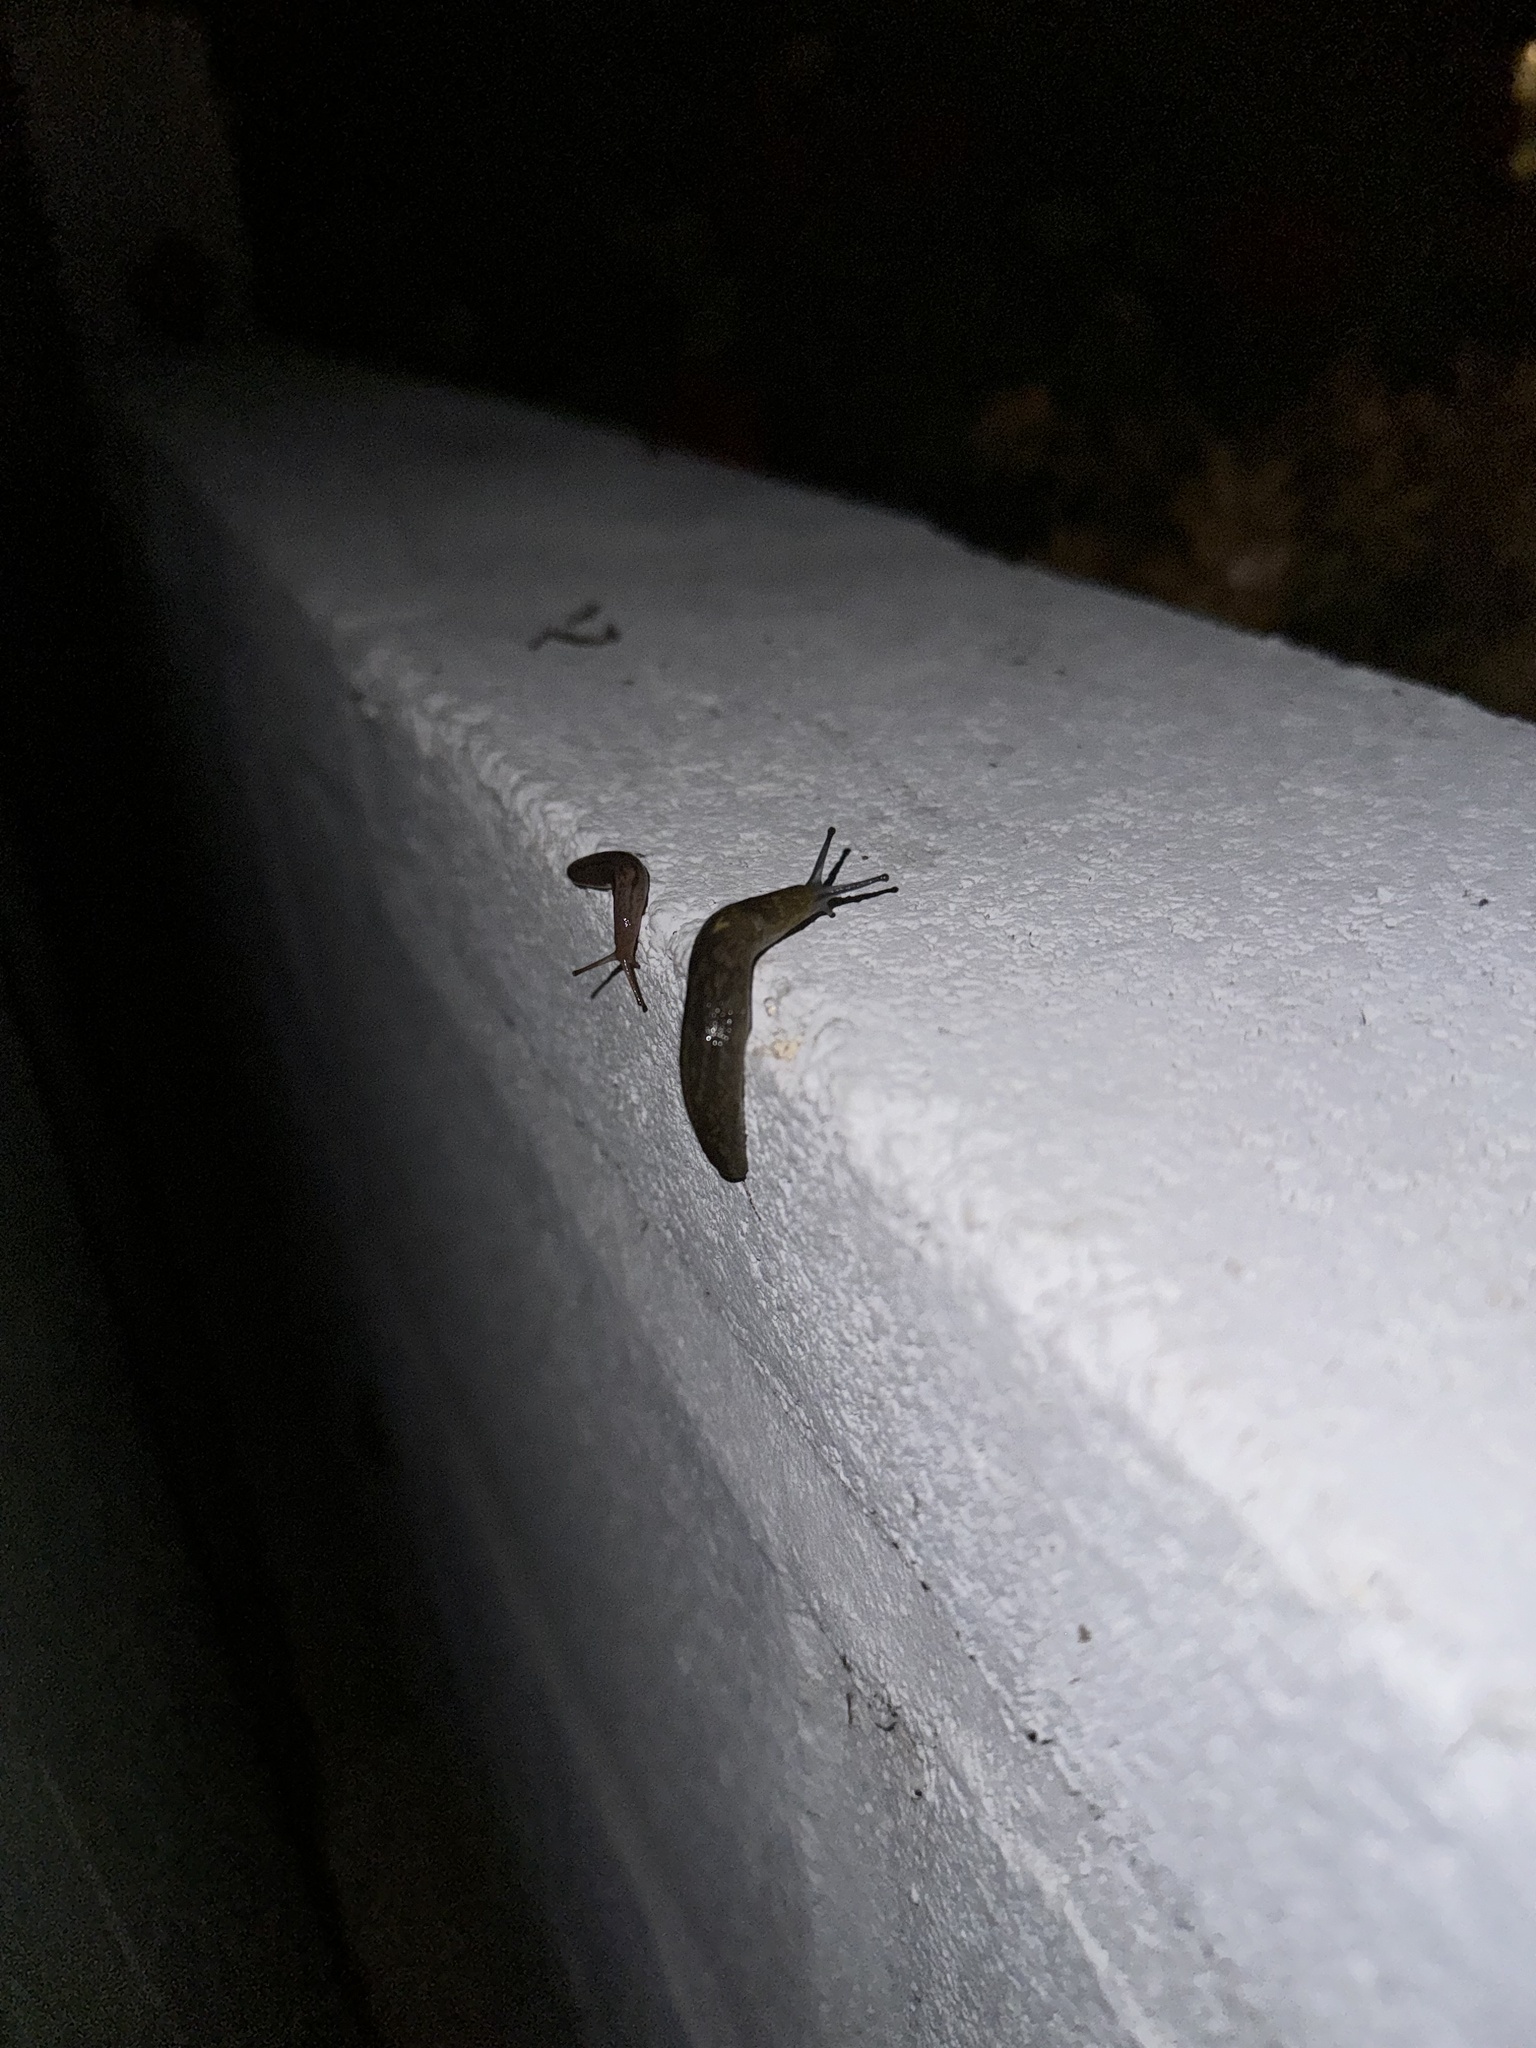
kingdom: Animalia
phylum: Mollusca
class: Gastropoda
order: Stylommatophora
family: Limacidae
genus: Limacus
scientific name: Limacus flavus
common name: Yellow gardenslug
